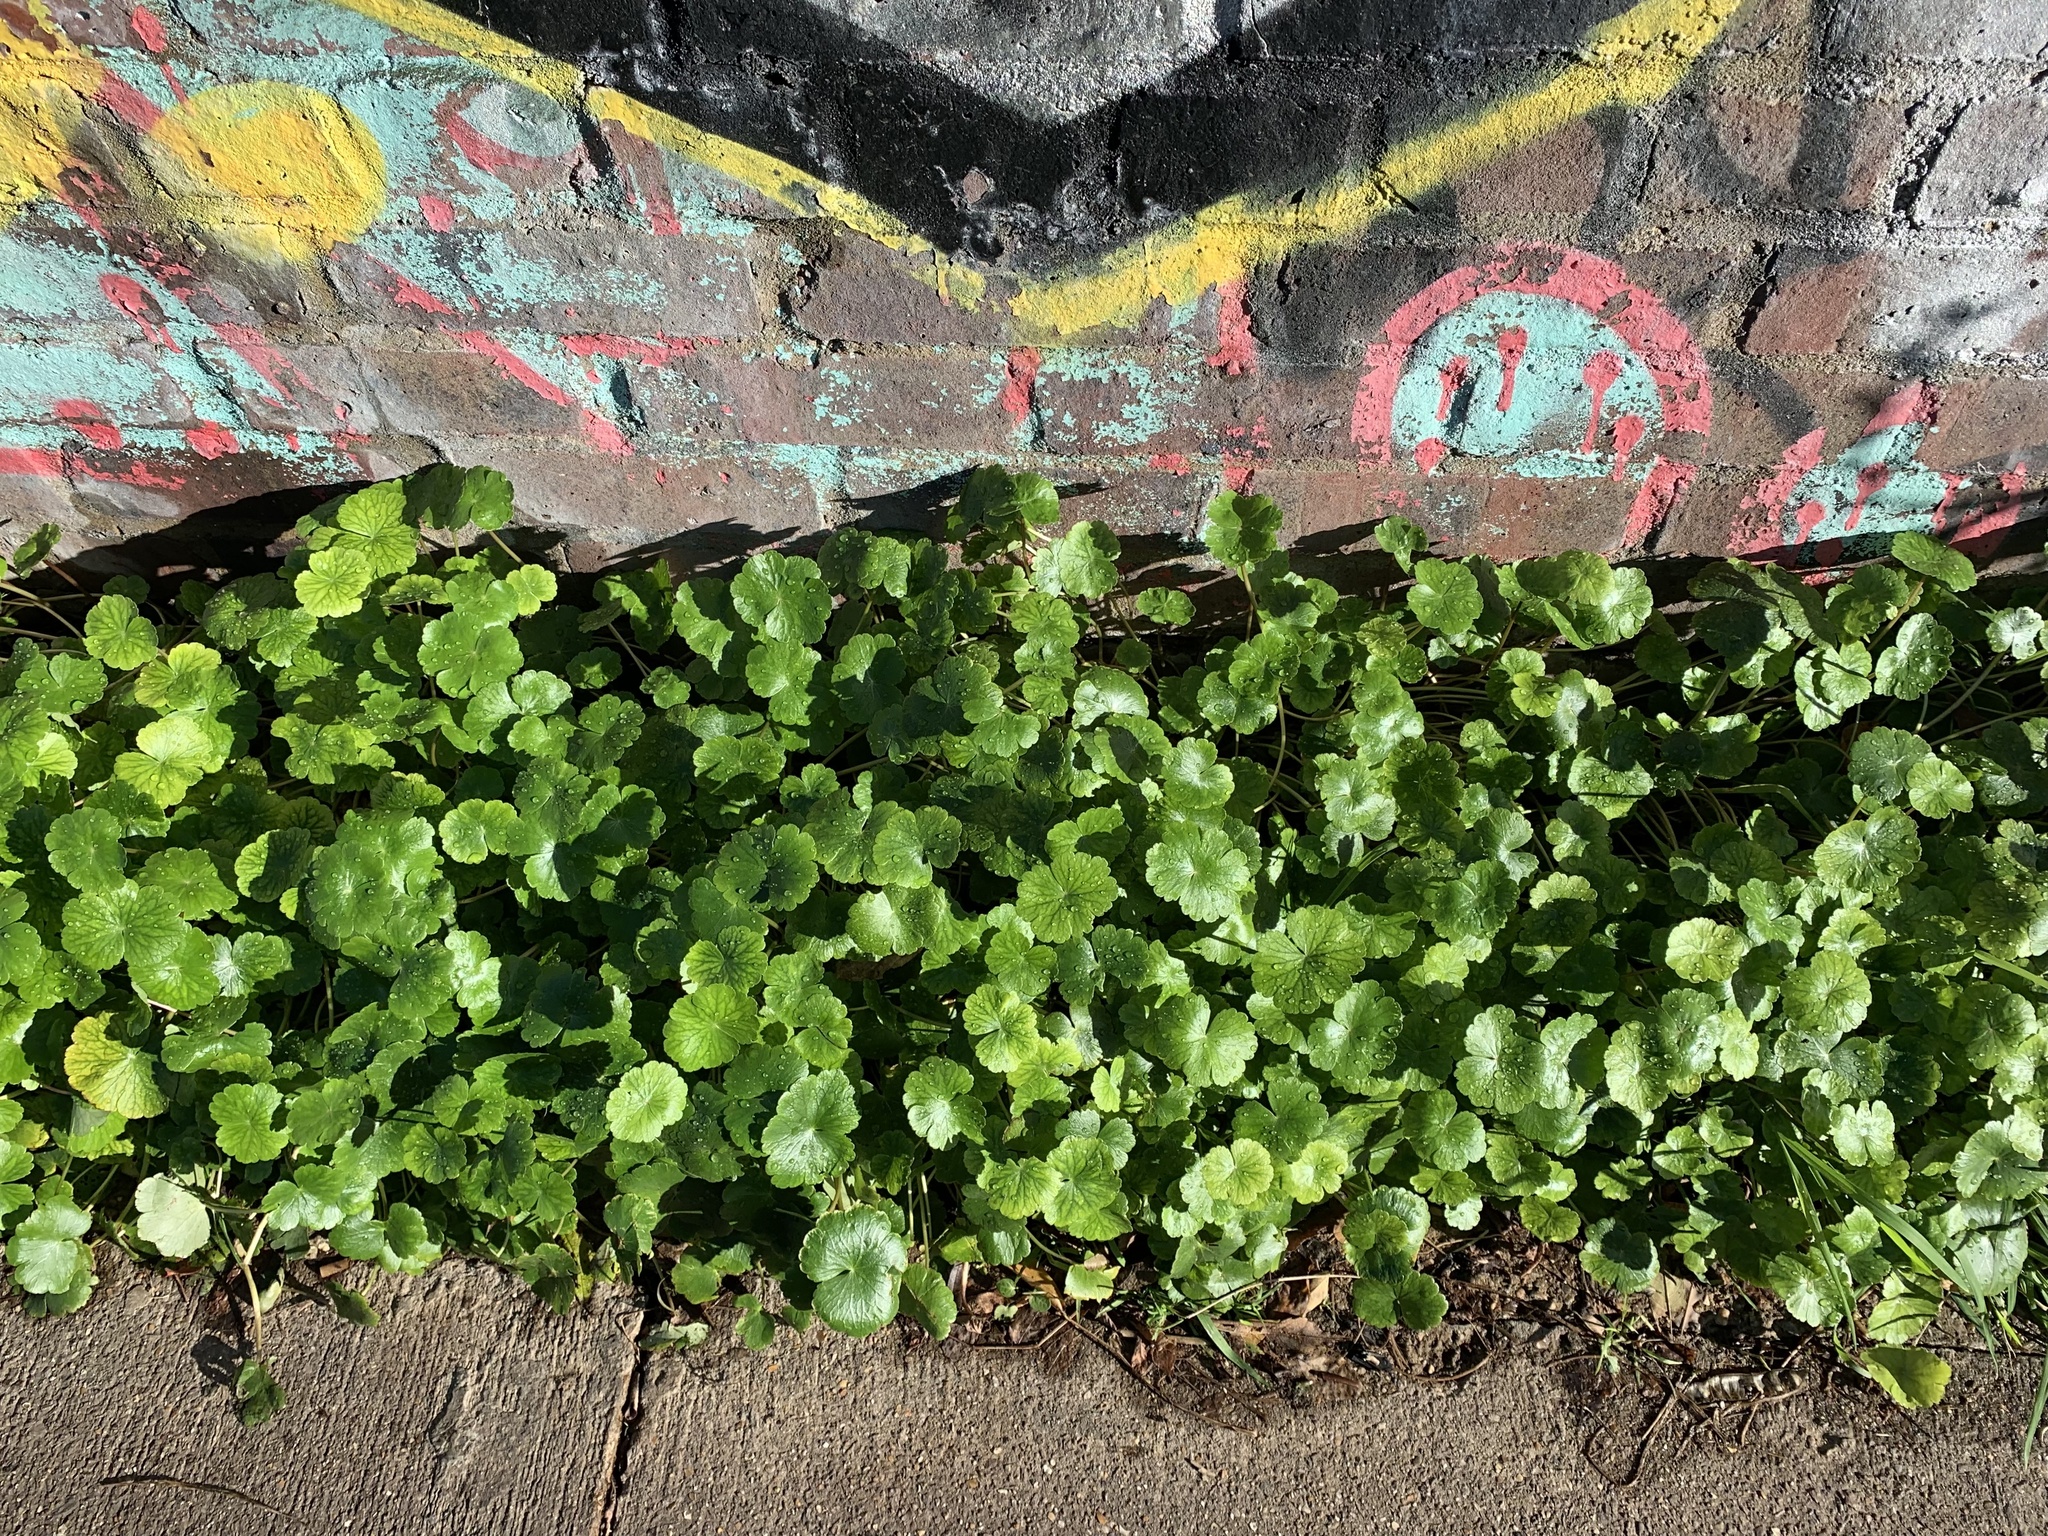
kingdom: Plantae
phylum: Tracheophyta
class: Magnoliopsida
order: Apiales
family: Araliaceae
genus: Hydrocotyle
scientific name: Hydrocotyle ranunculoides
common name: Floating pennywort
